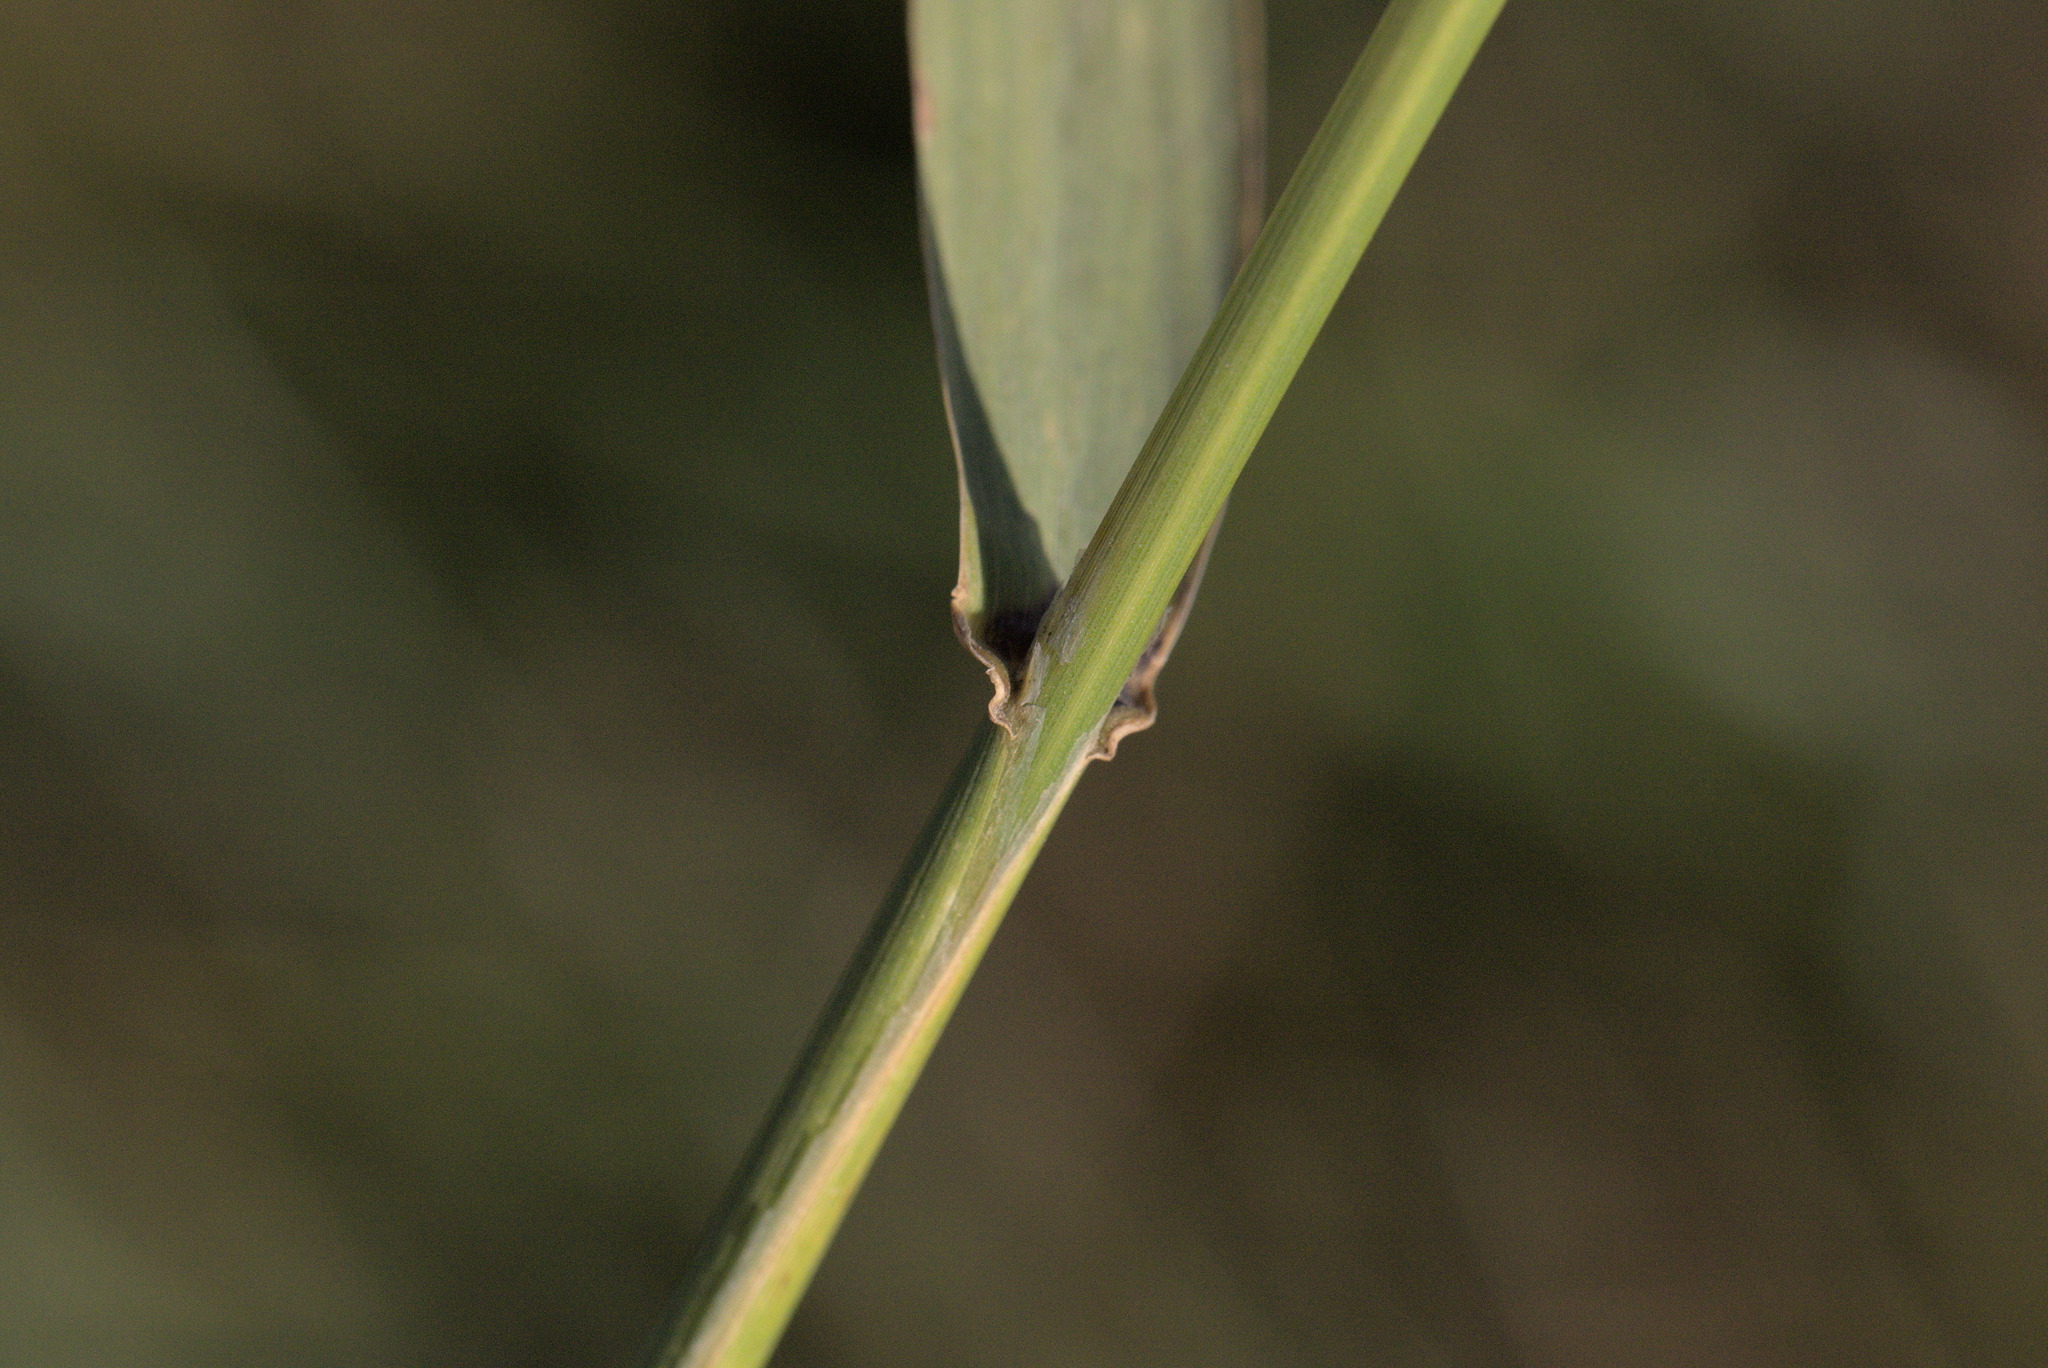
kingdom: Plantae
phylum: Tracheophyta
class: Liliopsida
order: Poales
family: Poaceae
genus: Phalaris
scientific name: Phalaris arundinacea
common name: Reed canary-grass
